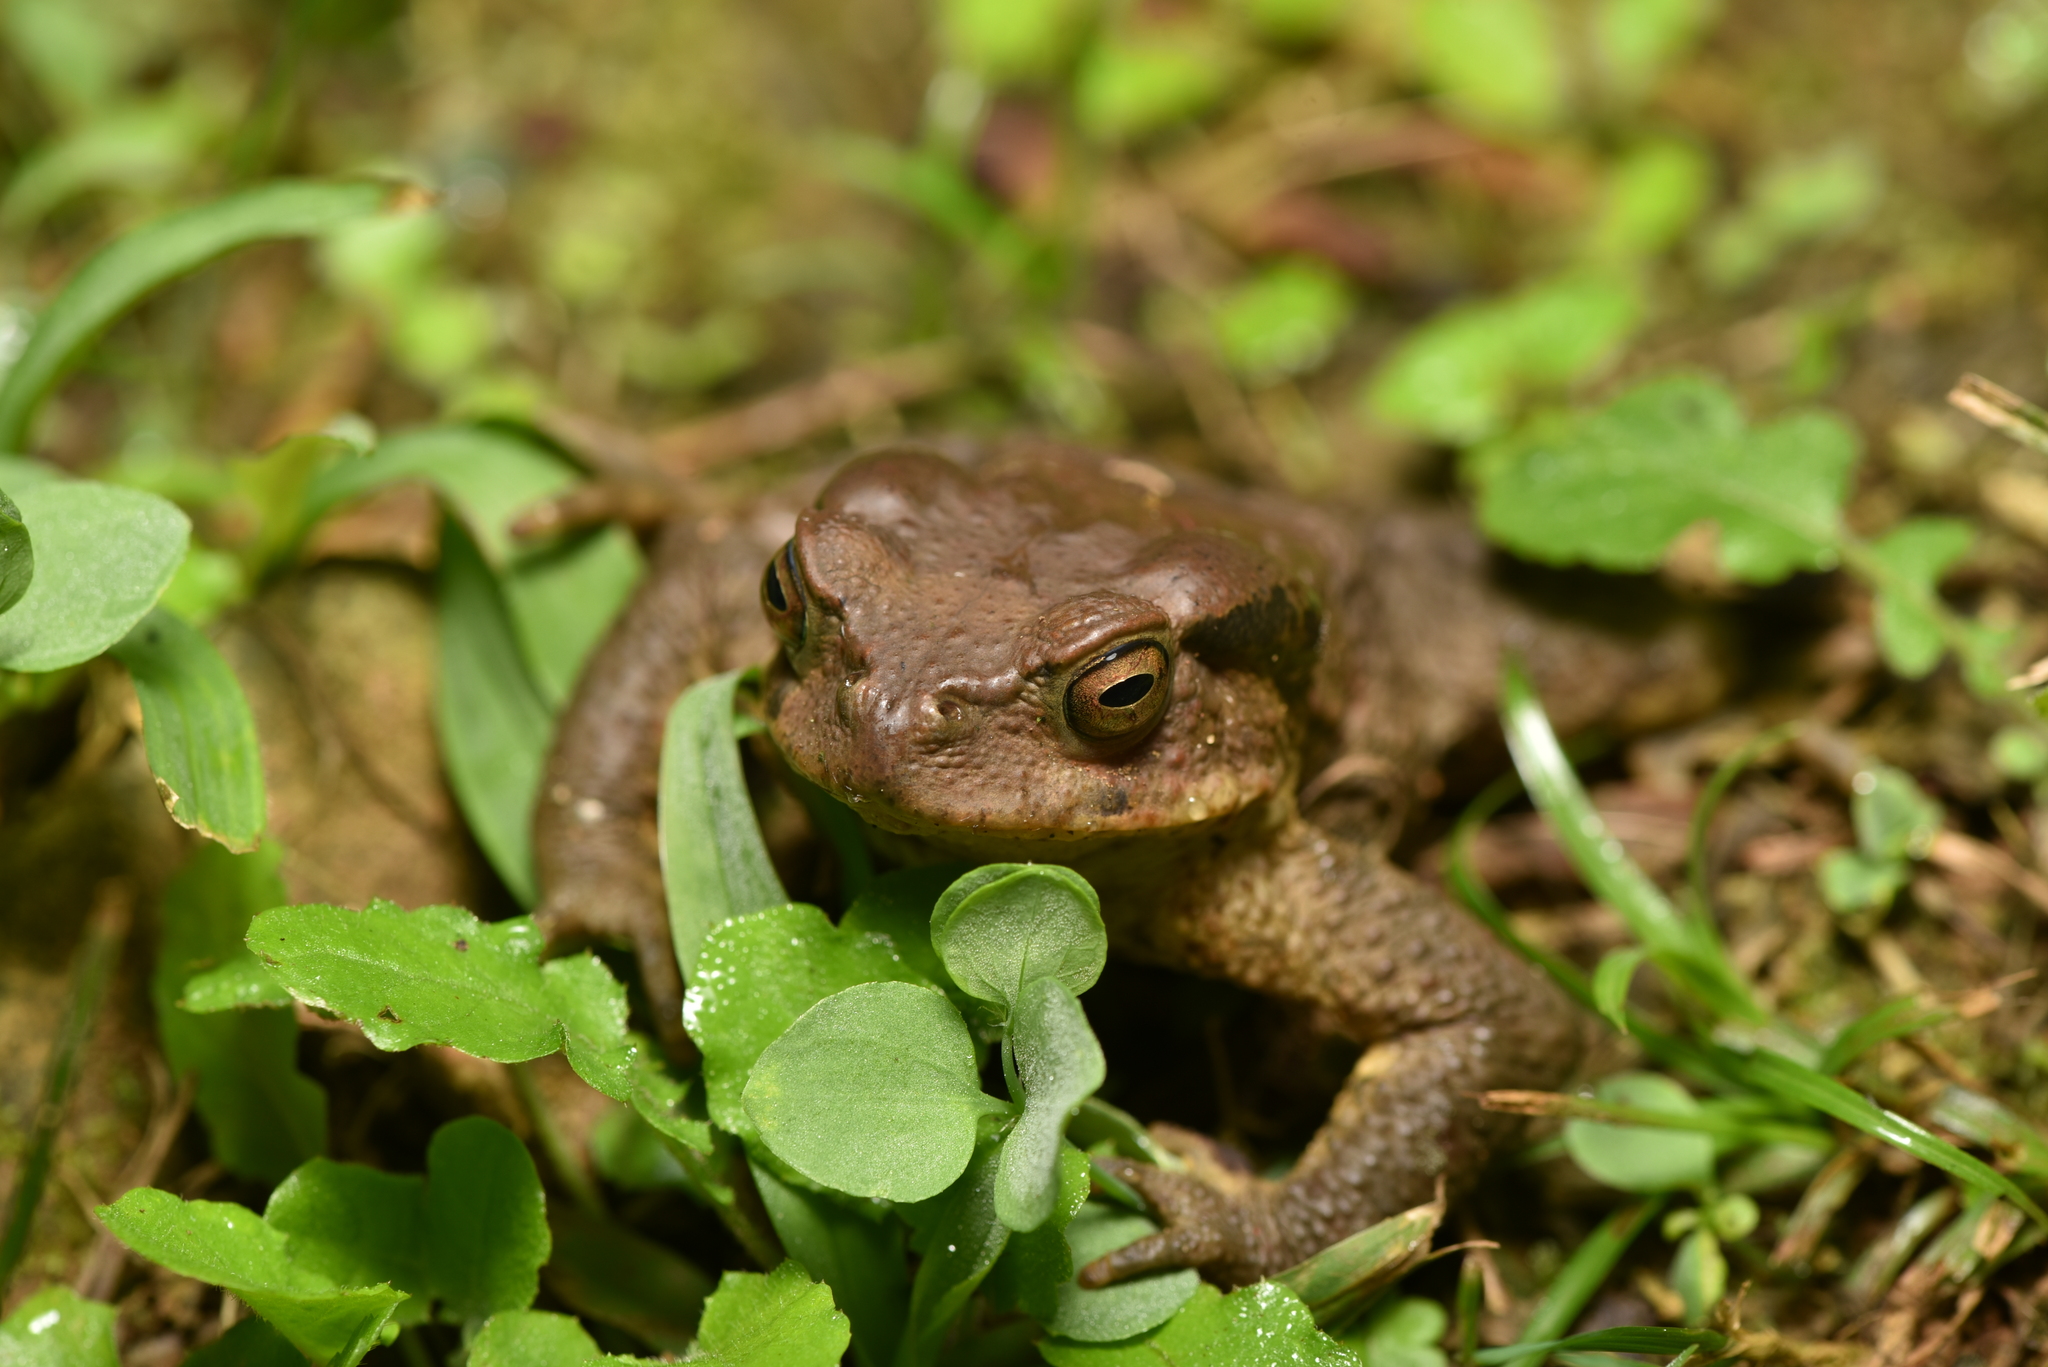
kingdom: Animalia
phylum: Chordata
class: Amphibia
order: Anura
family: Bufonidae
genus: Bufo
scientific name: Bufo bankorensis
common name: Bankor toad
